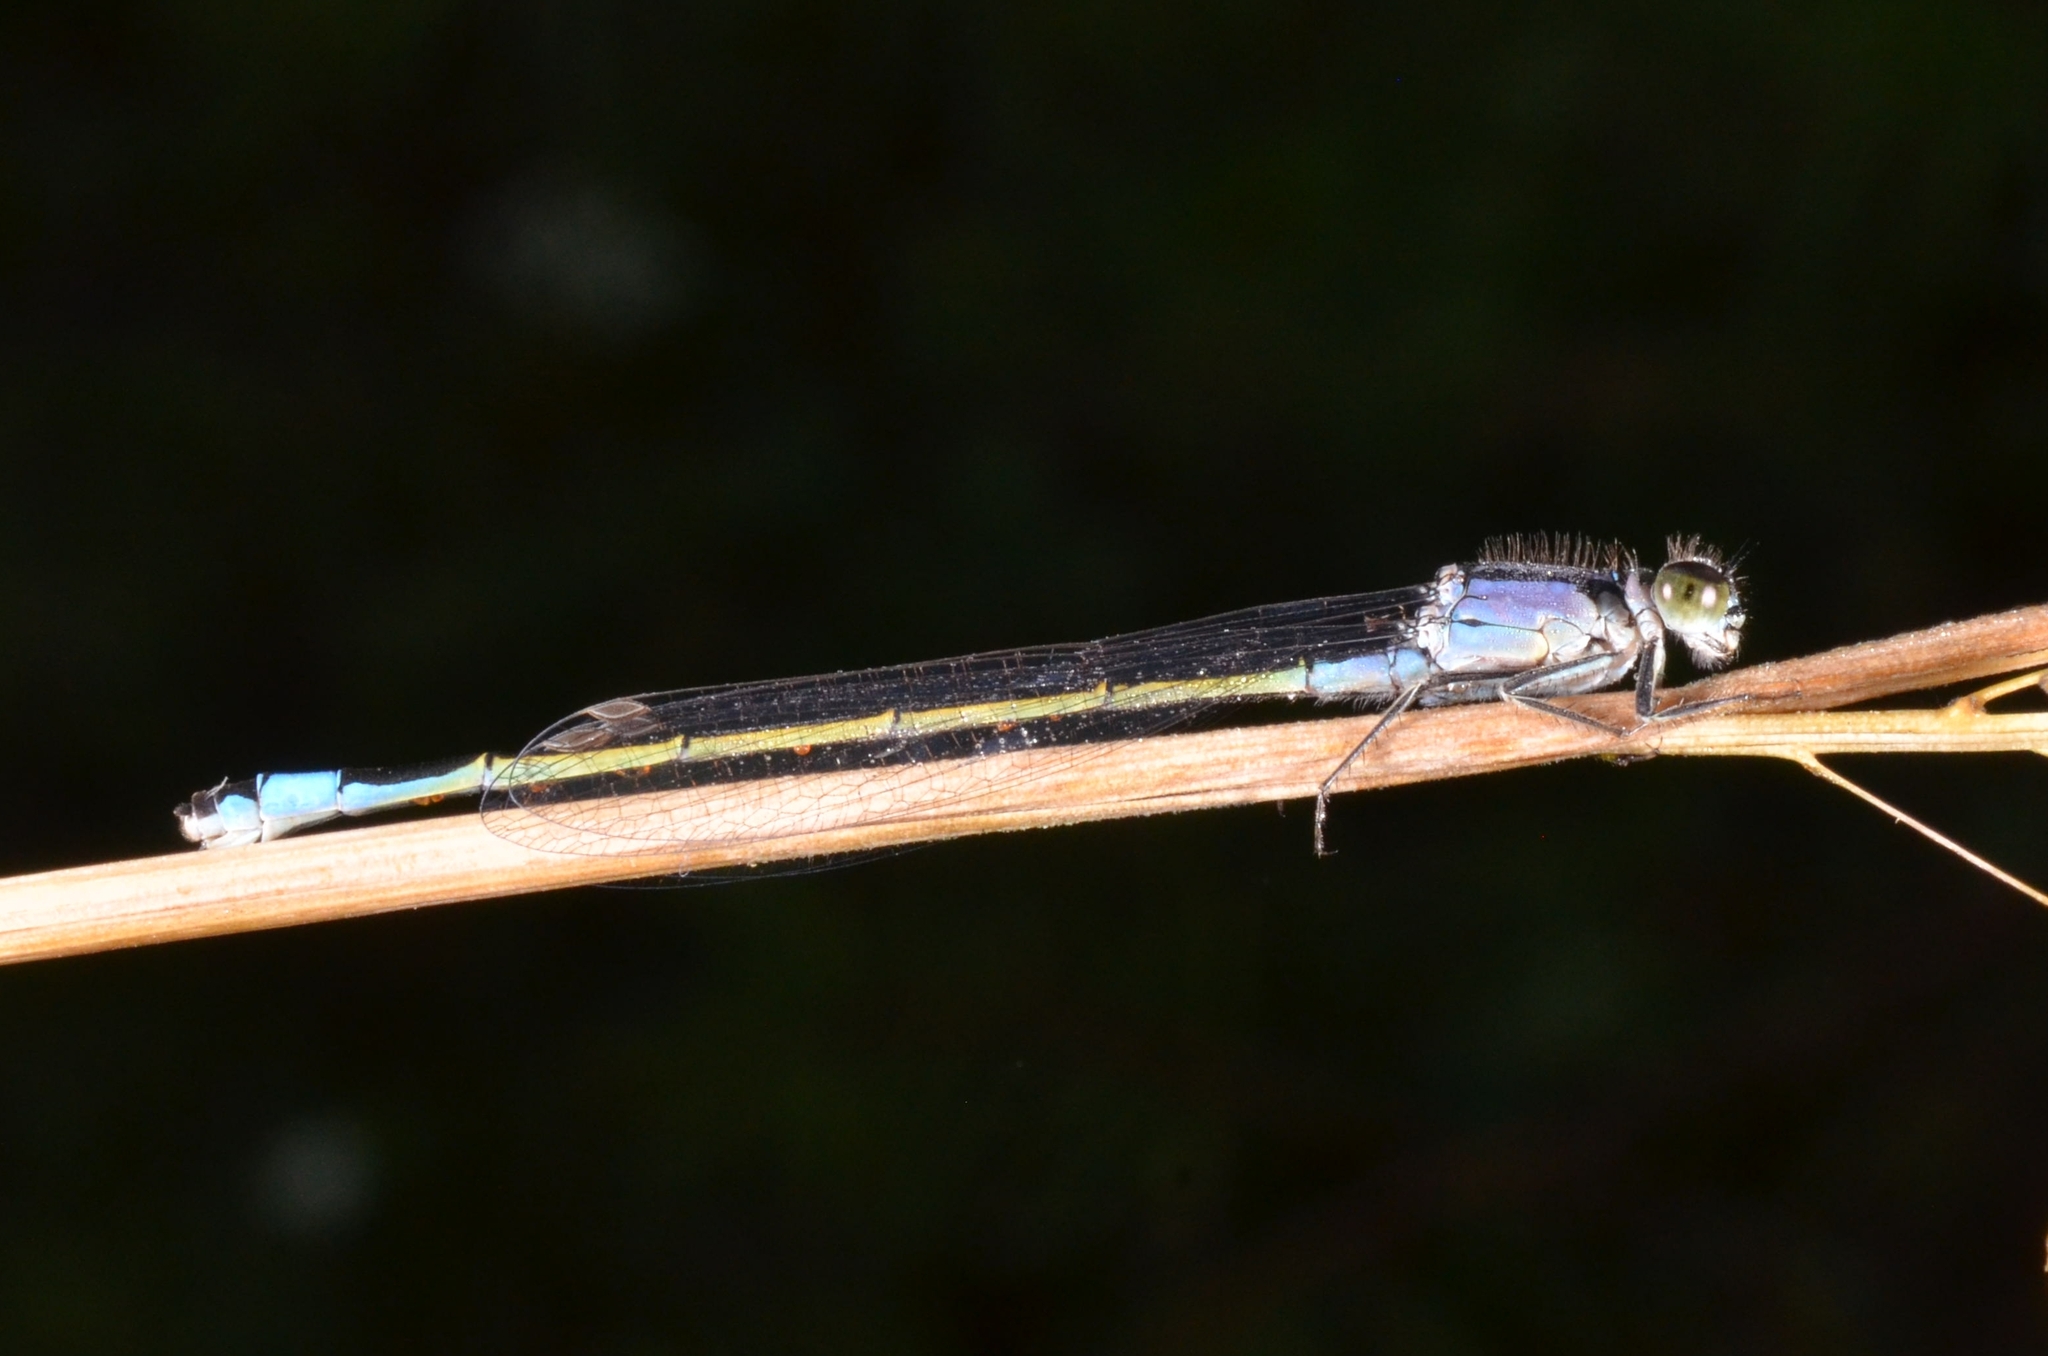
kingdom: Animalia
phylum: Arthropoda
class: Insecta
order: Odonata
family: Coenagrionidae
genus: Ischnura
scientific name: Ischnura elegans
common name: Blue-tailed damselfly
